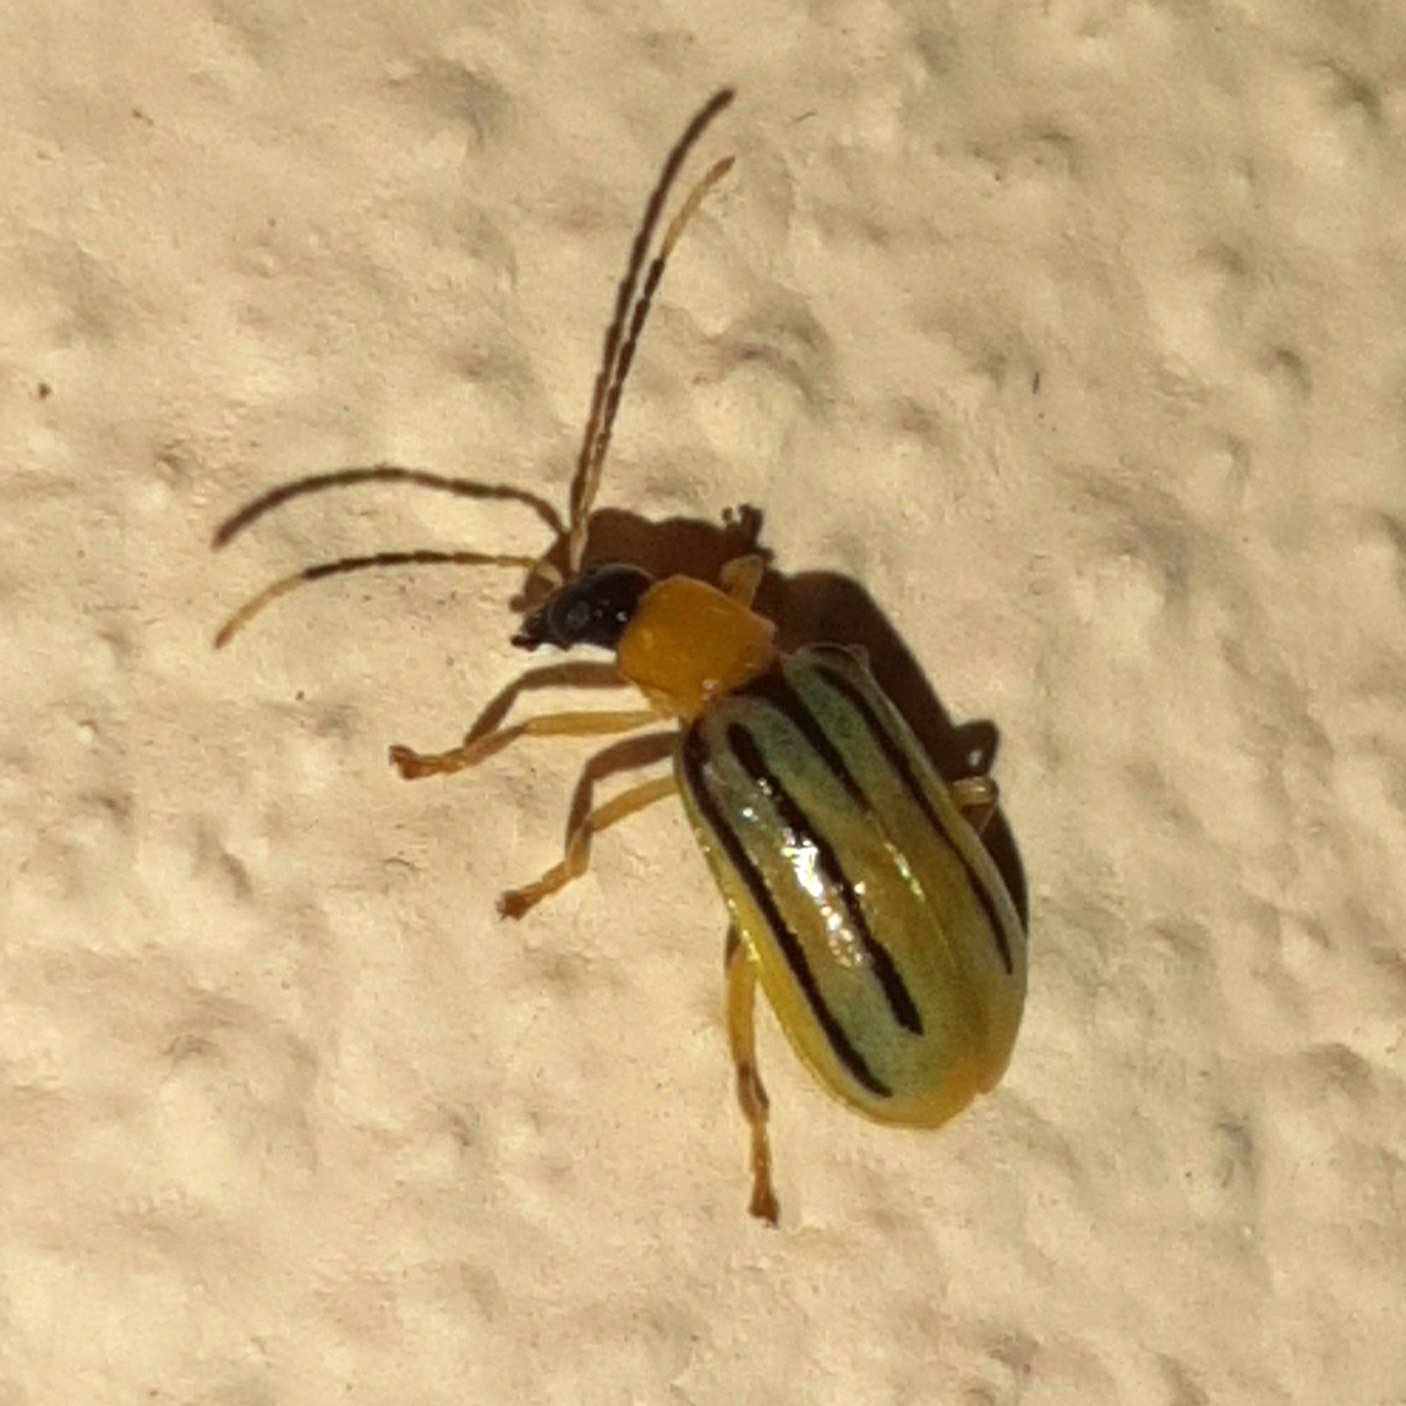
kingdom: Animalia
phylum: Arthropoda
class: Insecta
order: Coleoptera
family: Chrysomelidae
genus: Diabrotica
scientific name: Diabrotica
